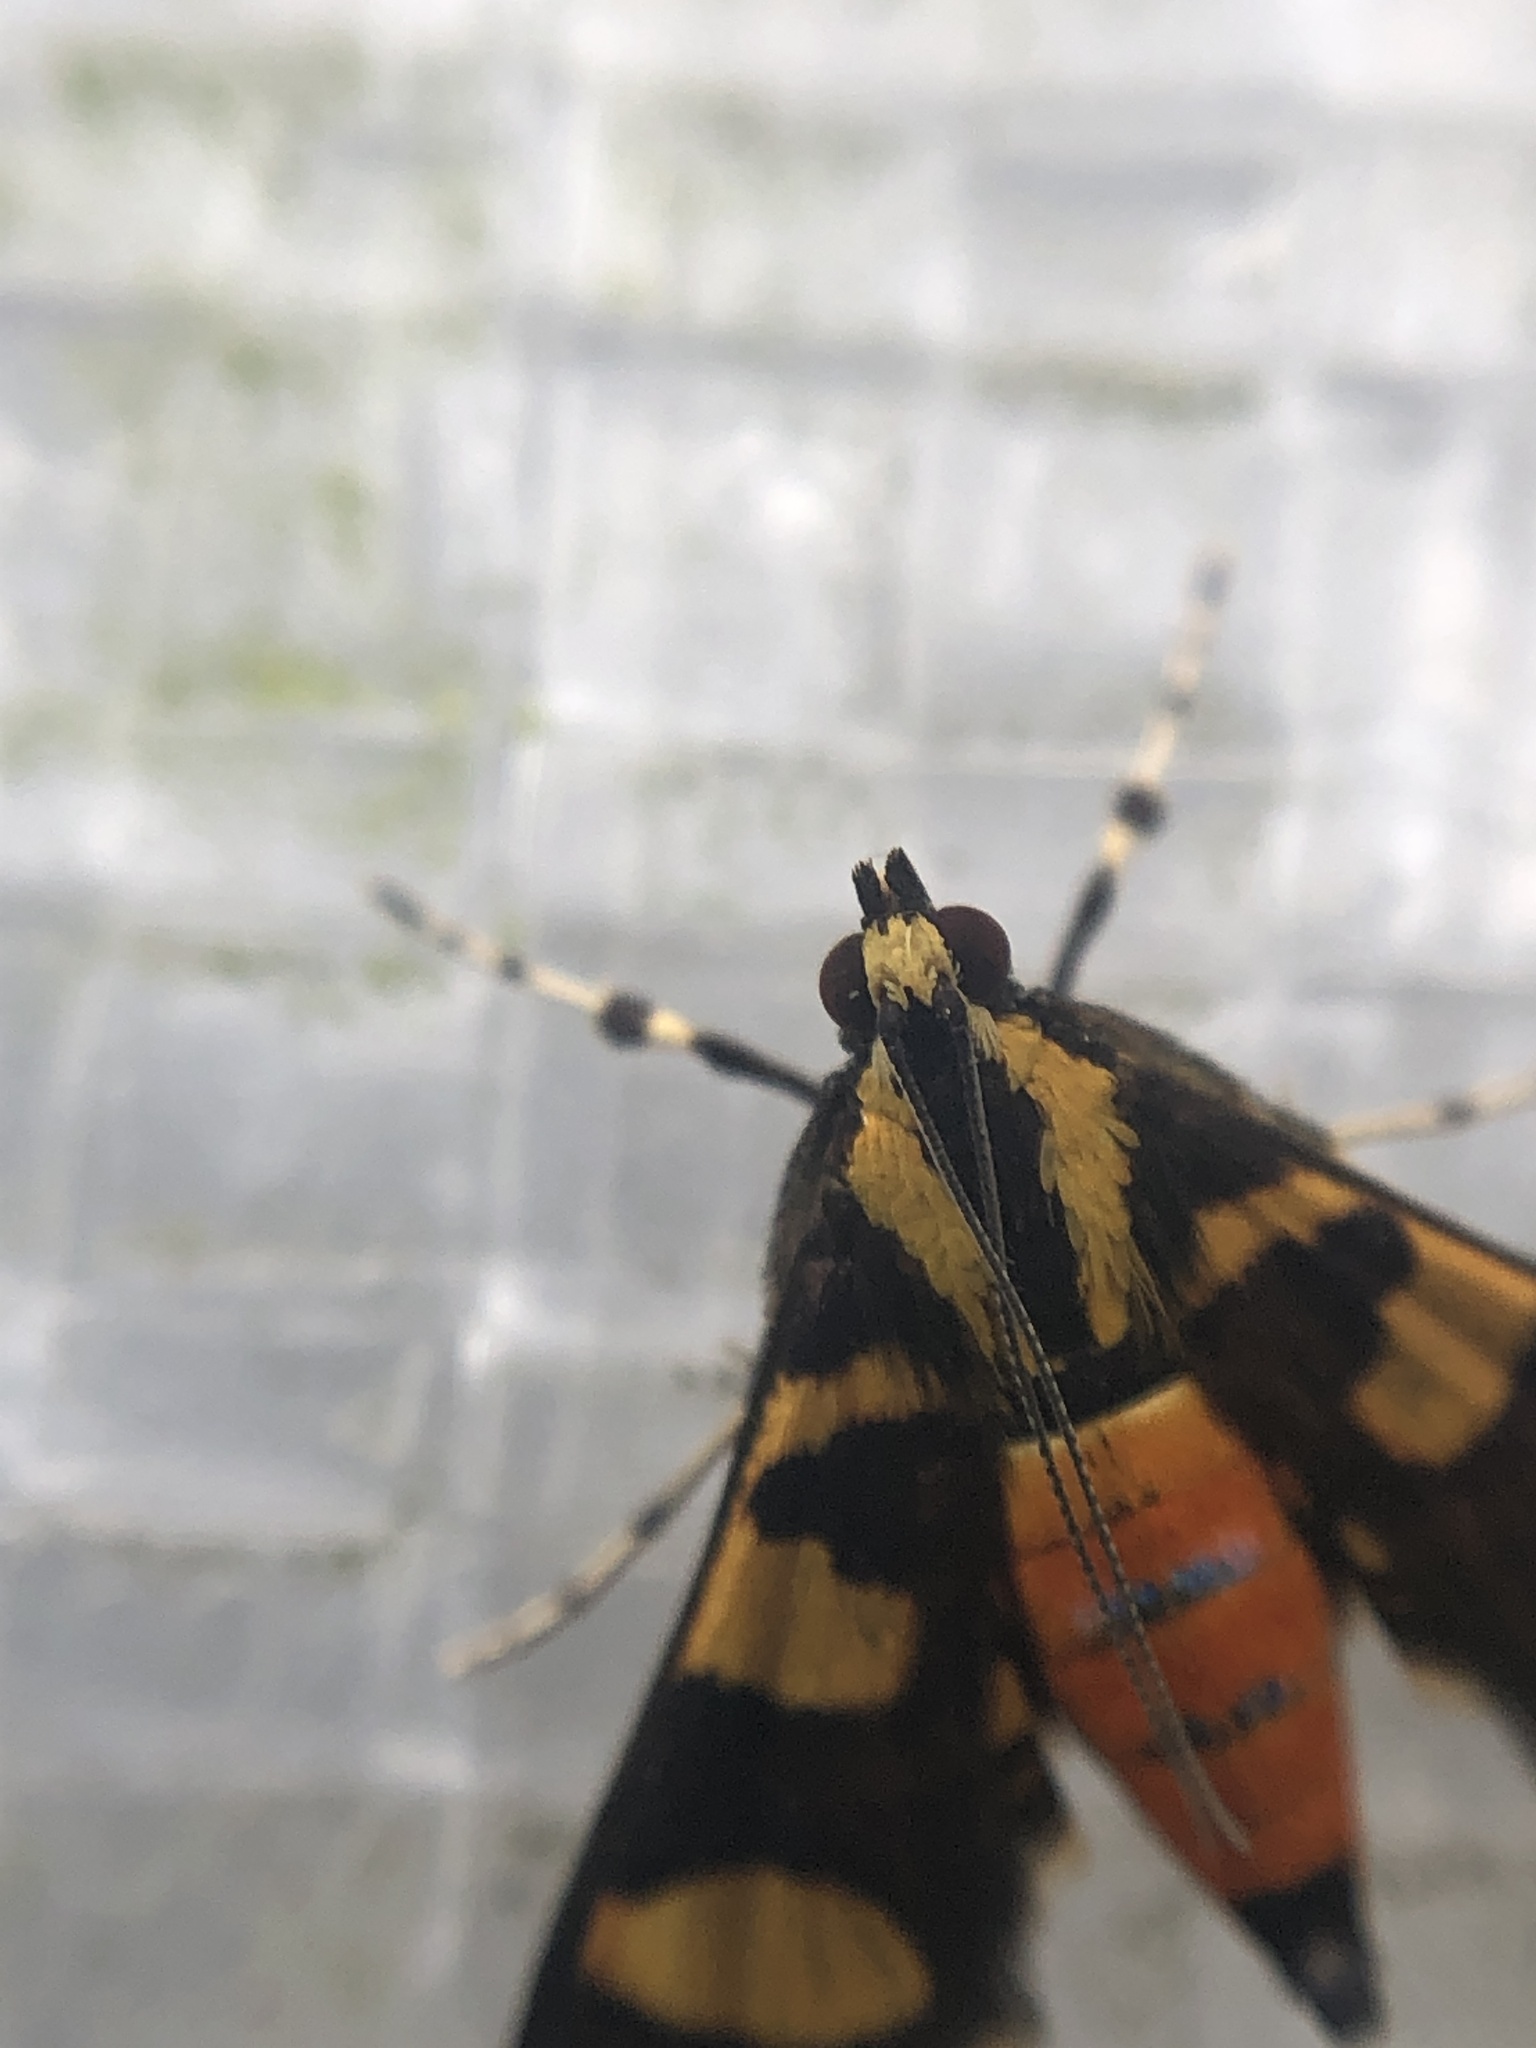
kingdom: Animalia
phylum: Arthropoda
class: Insecta
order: Lepidoptera
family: Crambidae
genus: Syngamia
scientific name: Syngamia florella
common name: Orange-spotted flower moth
